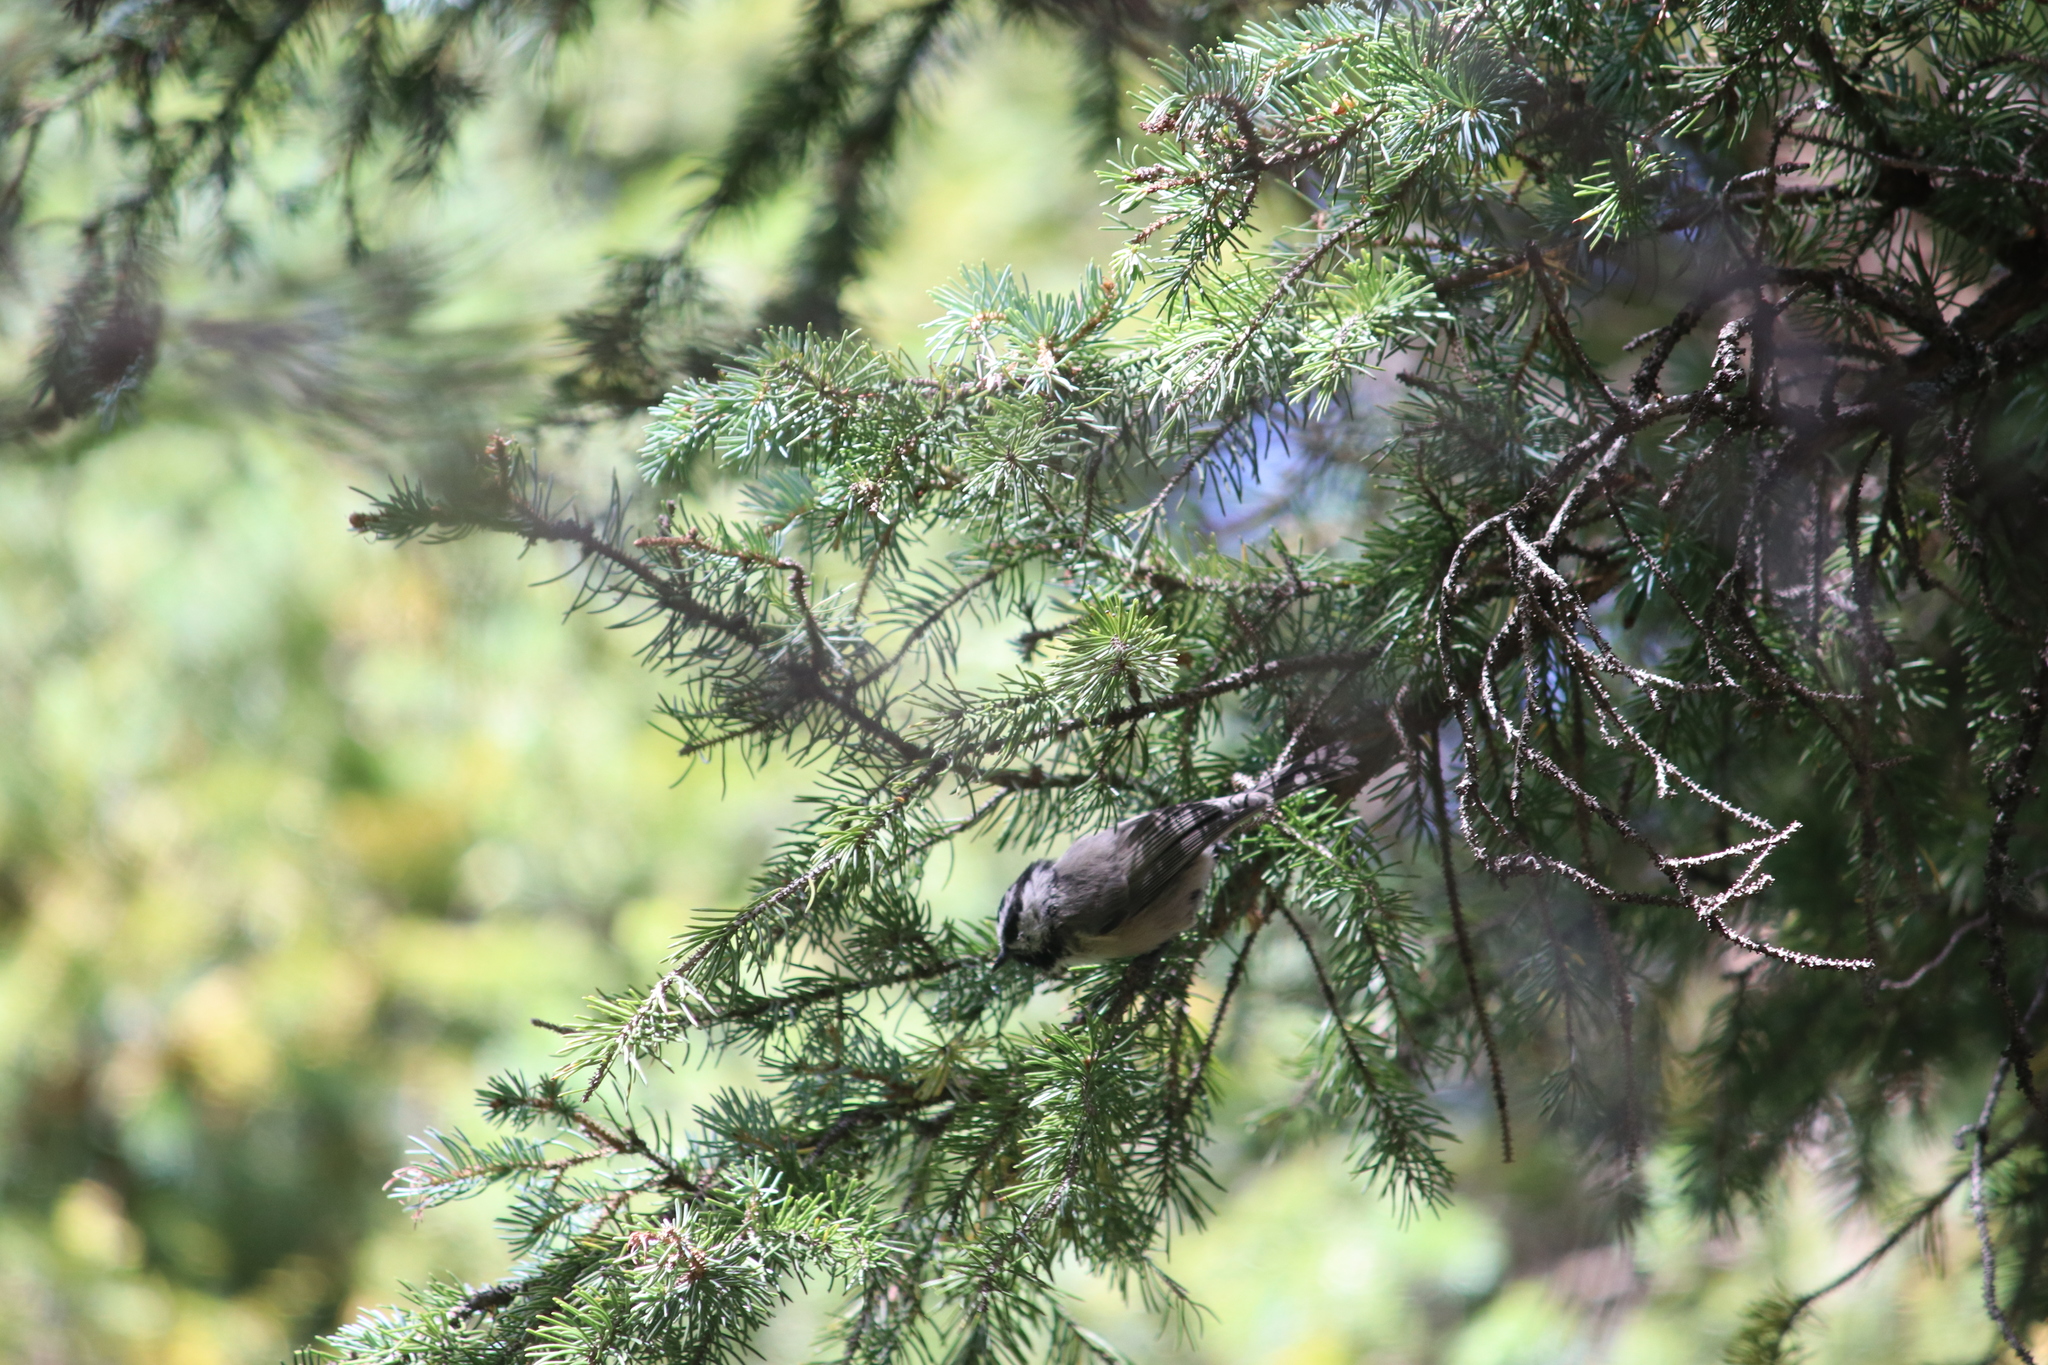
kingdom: Animalia
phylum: Chordata
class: Aves
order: Passeriformes
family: Paridae
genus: Poecile
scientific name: Poecile gambeli
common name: Mountain chickadee
